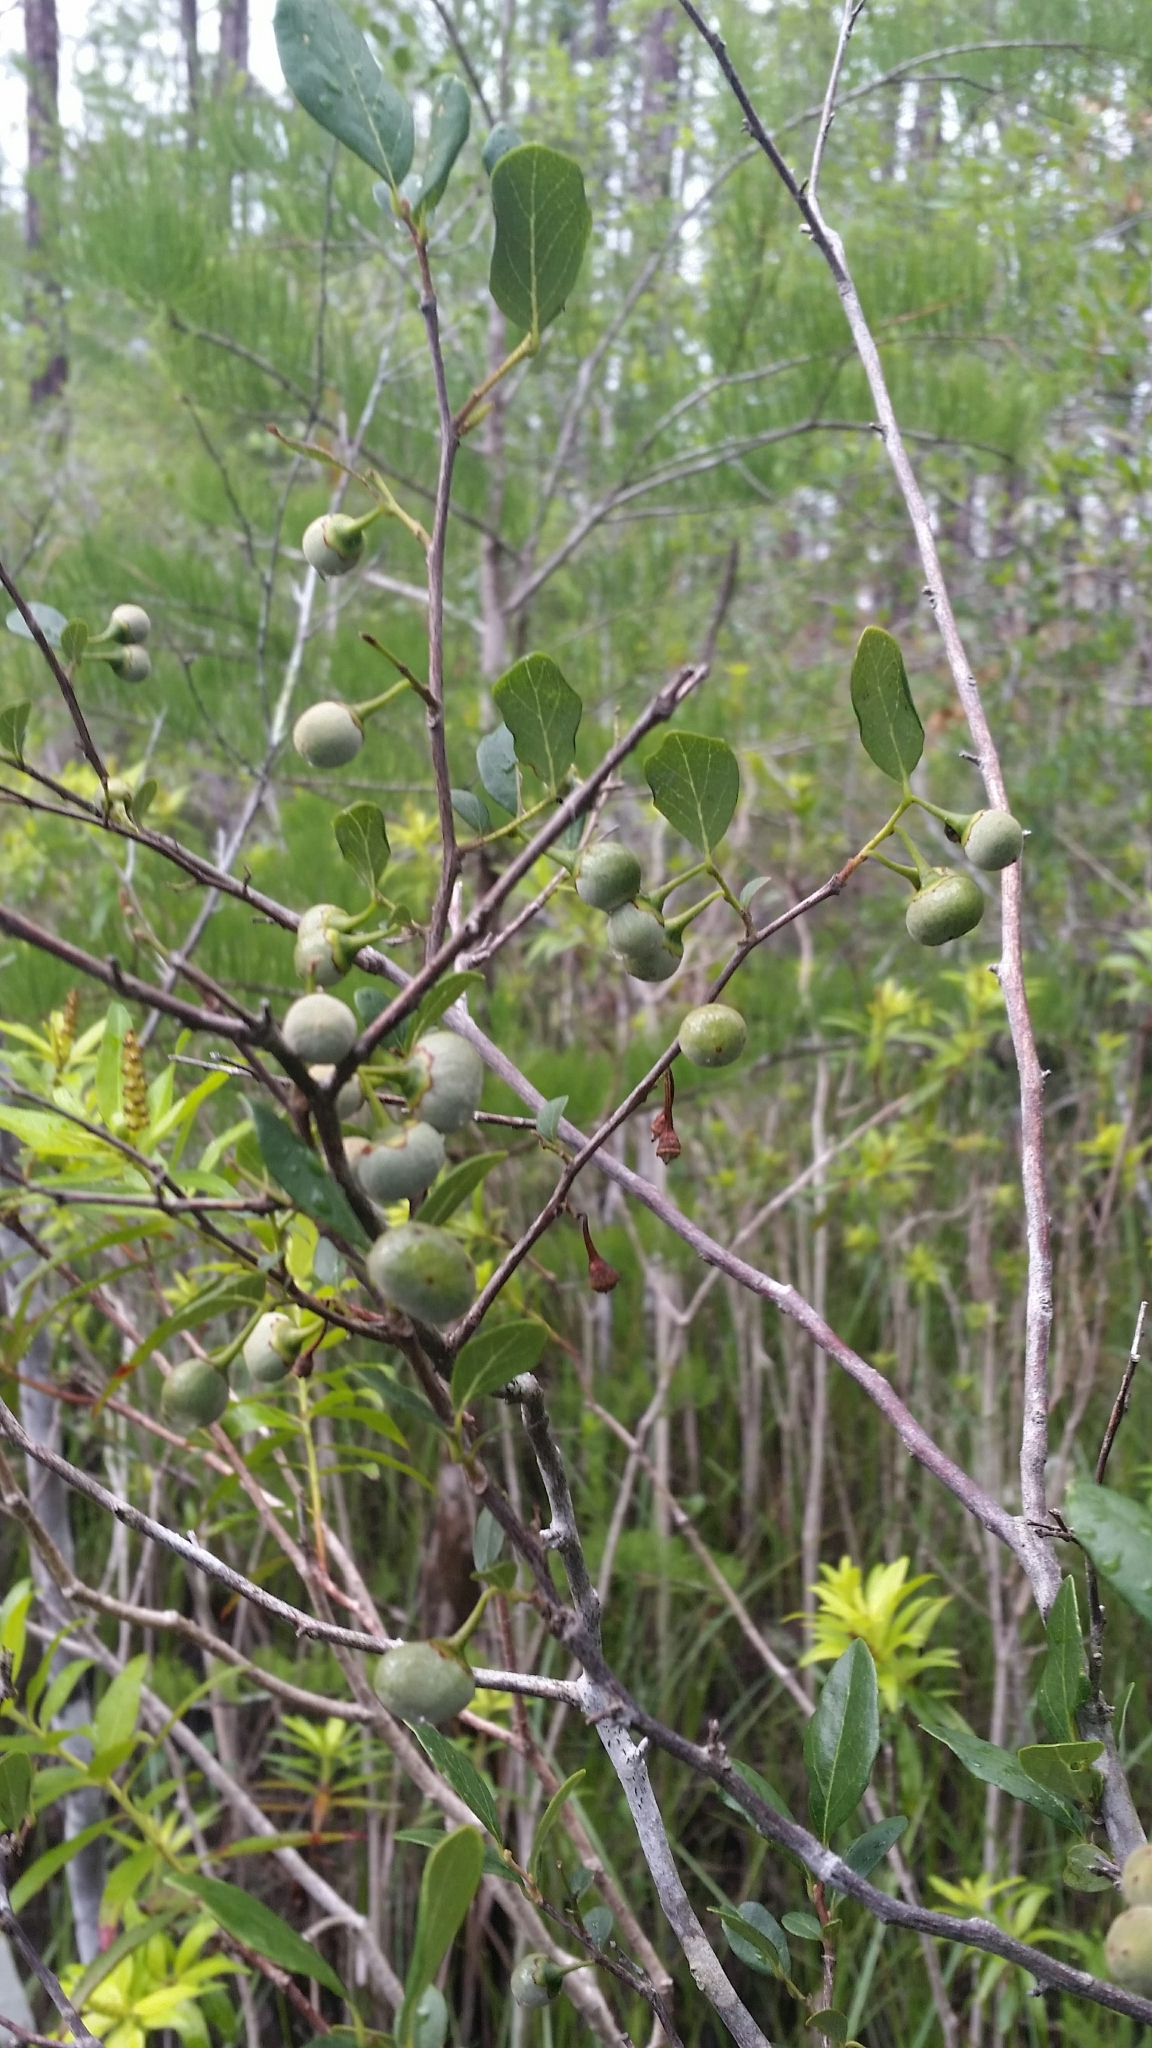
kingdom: Plantae
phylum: Tracheophyta
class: Magnoliopsida
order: Ericales
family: Styracaceae
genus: Styrax
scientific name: Styrax americanus
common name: American snowbell
